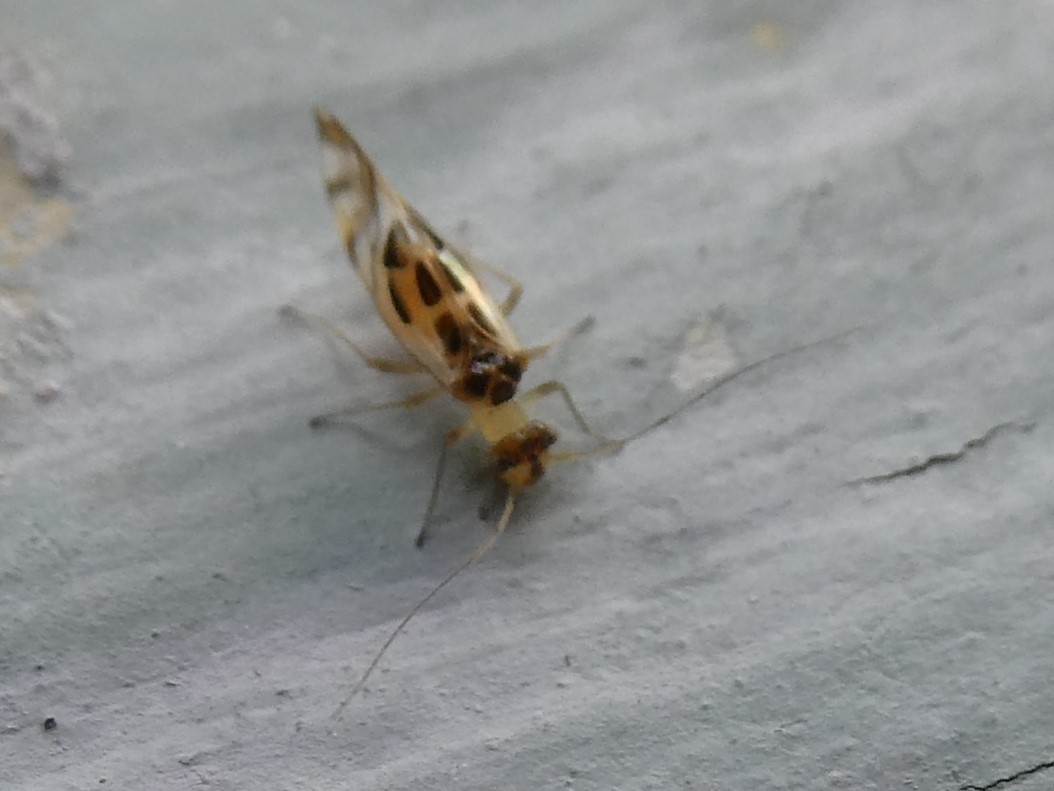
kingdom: Animalia
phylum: Arthropoda
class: Insecta
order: Psocodea
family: Stenopsocidae
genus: Graphopsocus
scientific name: Graphopsocus cruciatus
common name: Lizard bark louse
